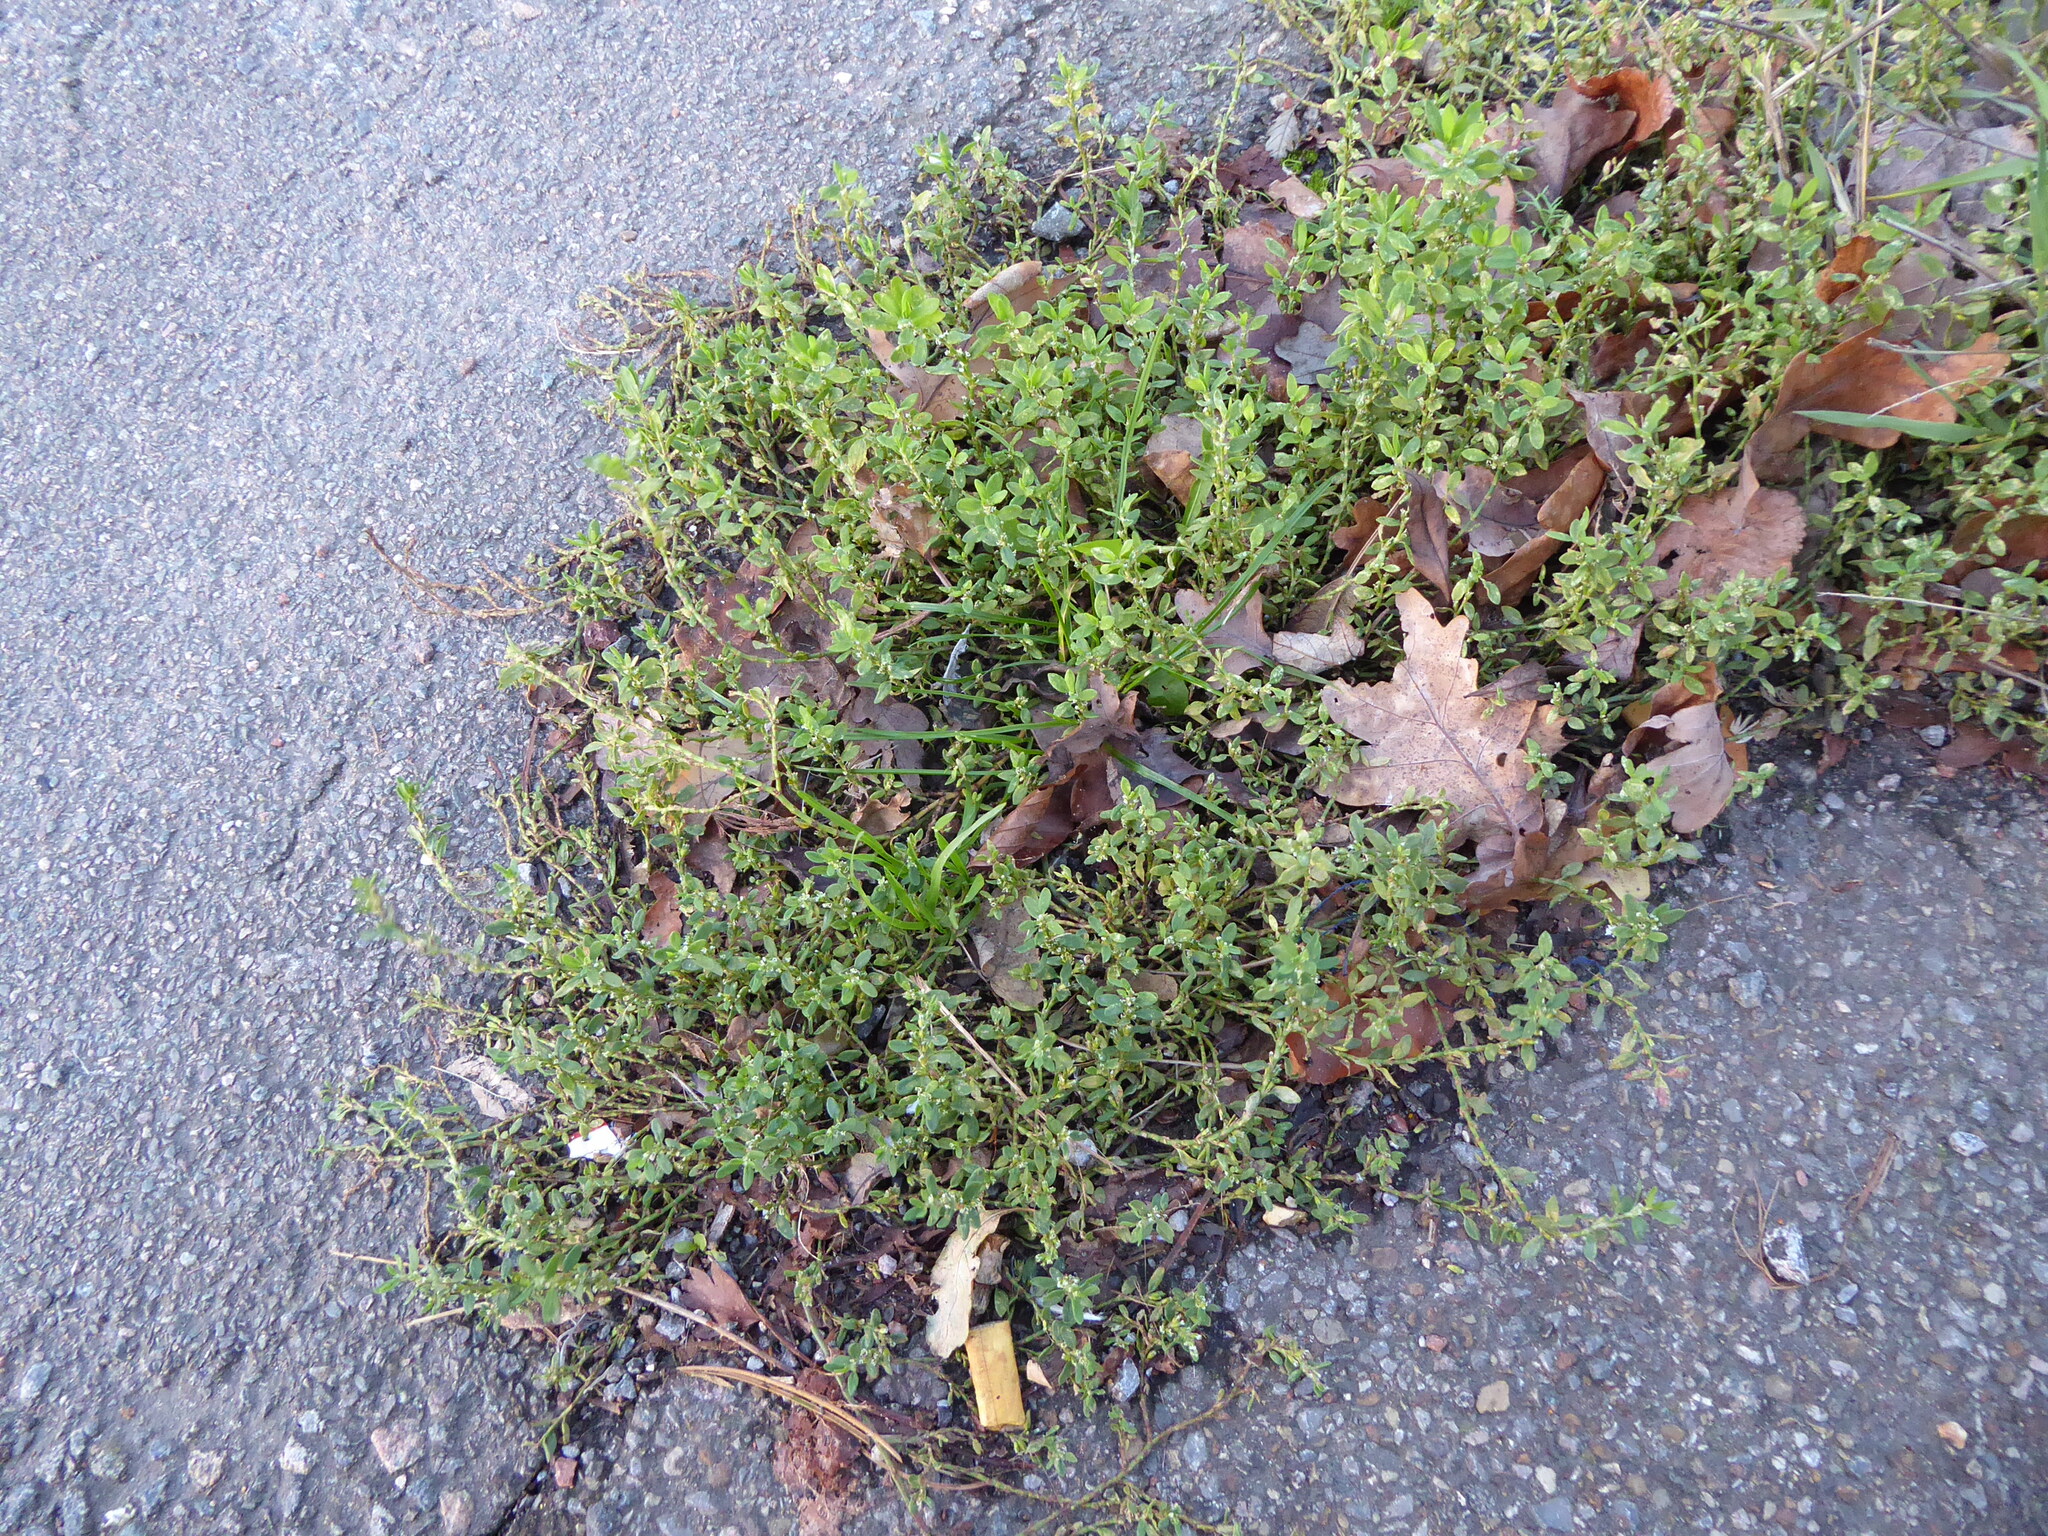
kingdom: Plantae
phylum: Tracheophyta
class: Magnoliopsida
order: Caryophyllales
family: Polygonaceae
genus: Polygonum
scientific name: Polygonum
